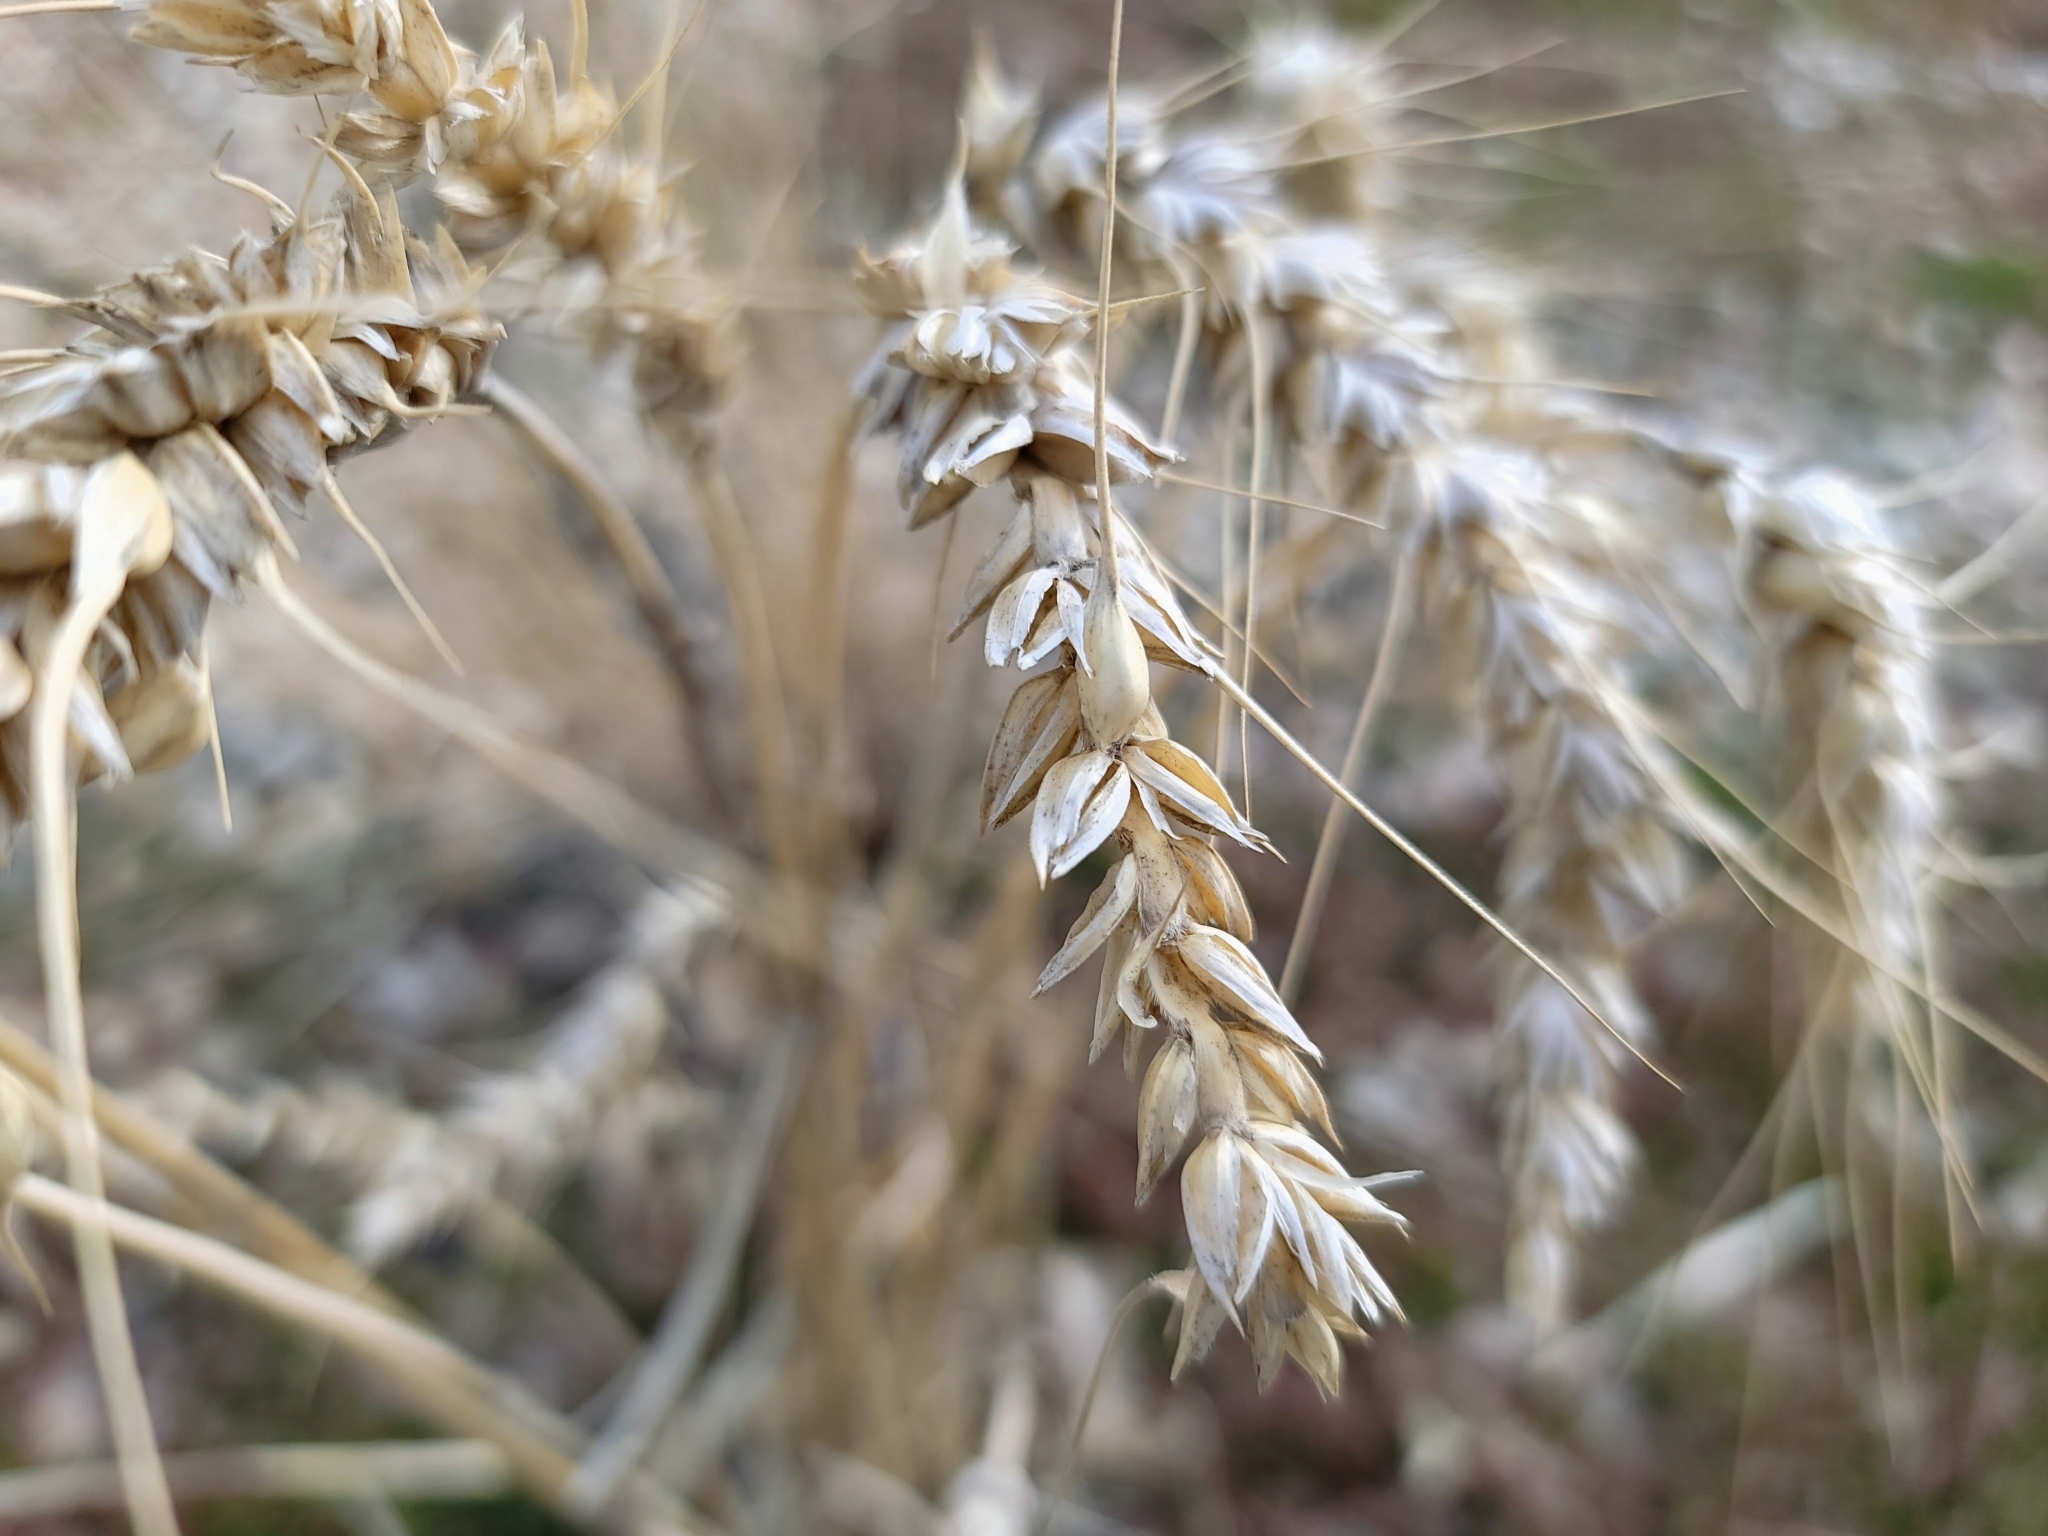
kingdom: Plantae
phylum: Tracheophyta
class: Liliopsida
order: Poales
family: Poaceae
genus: Triticum
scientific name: Triticum aestivum
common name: Common wheat
